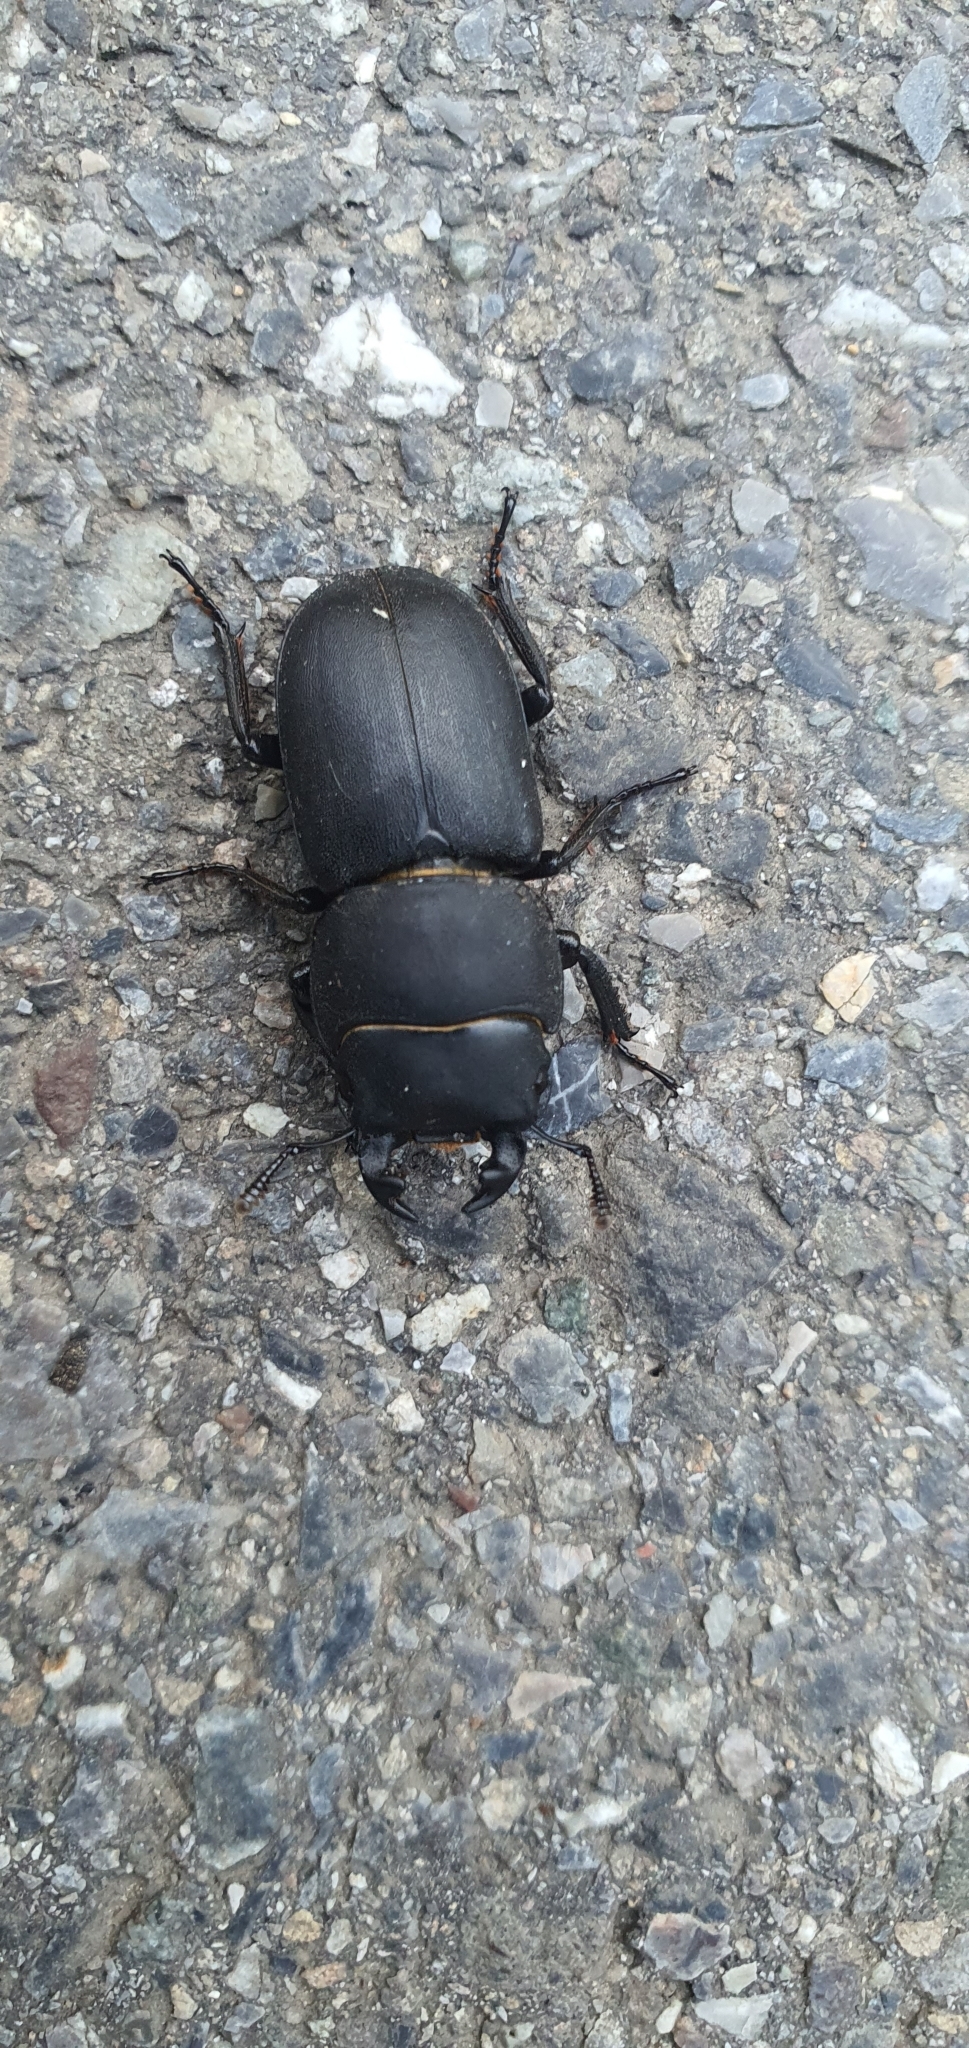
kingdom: Animalia
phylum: Arthropoda
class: Insecta
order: Coleoptera
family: Lucanidae
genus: Dorcus
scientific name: Dorcus parallelipipedus
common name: Lesser stag beetle
